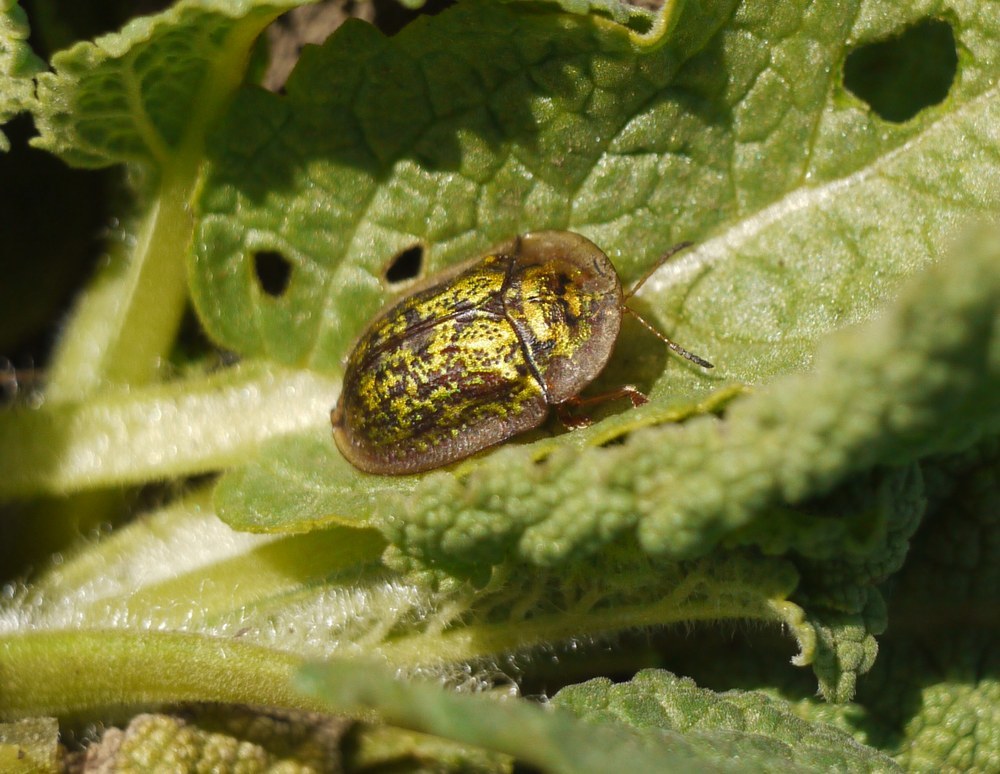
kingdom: Animalia
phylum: Arthropoda
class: Insecta
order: Coleoptera
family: Chrysomelidae
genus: Cassida
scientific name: Cassida canaliculata
